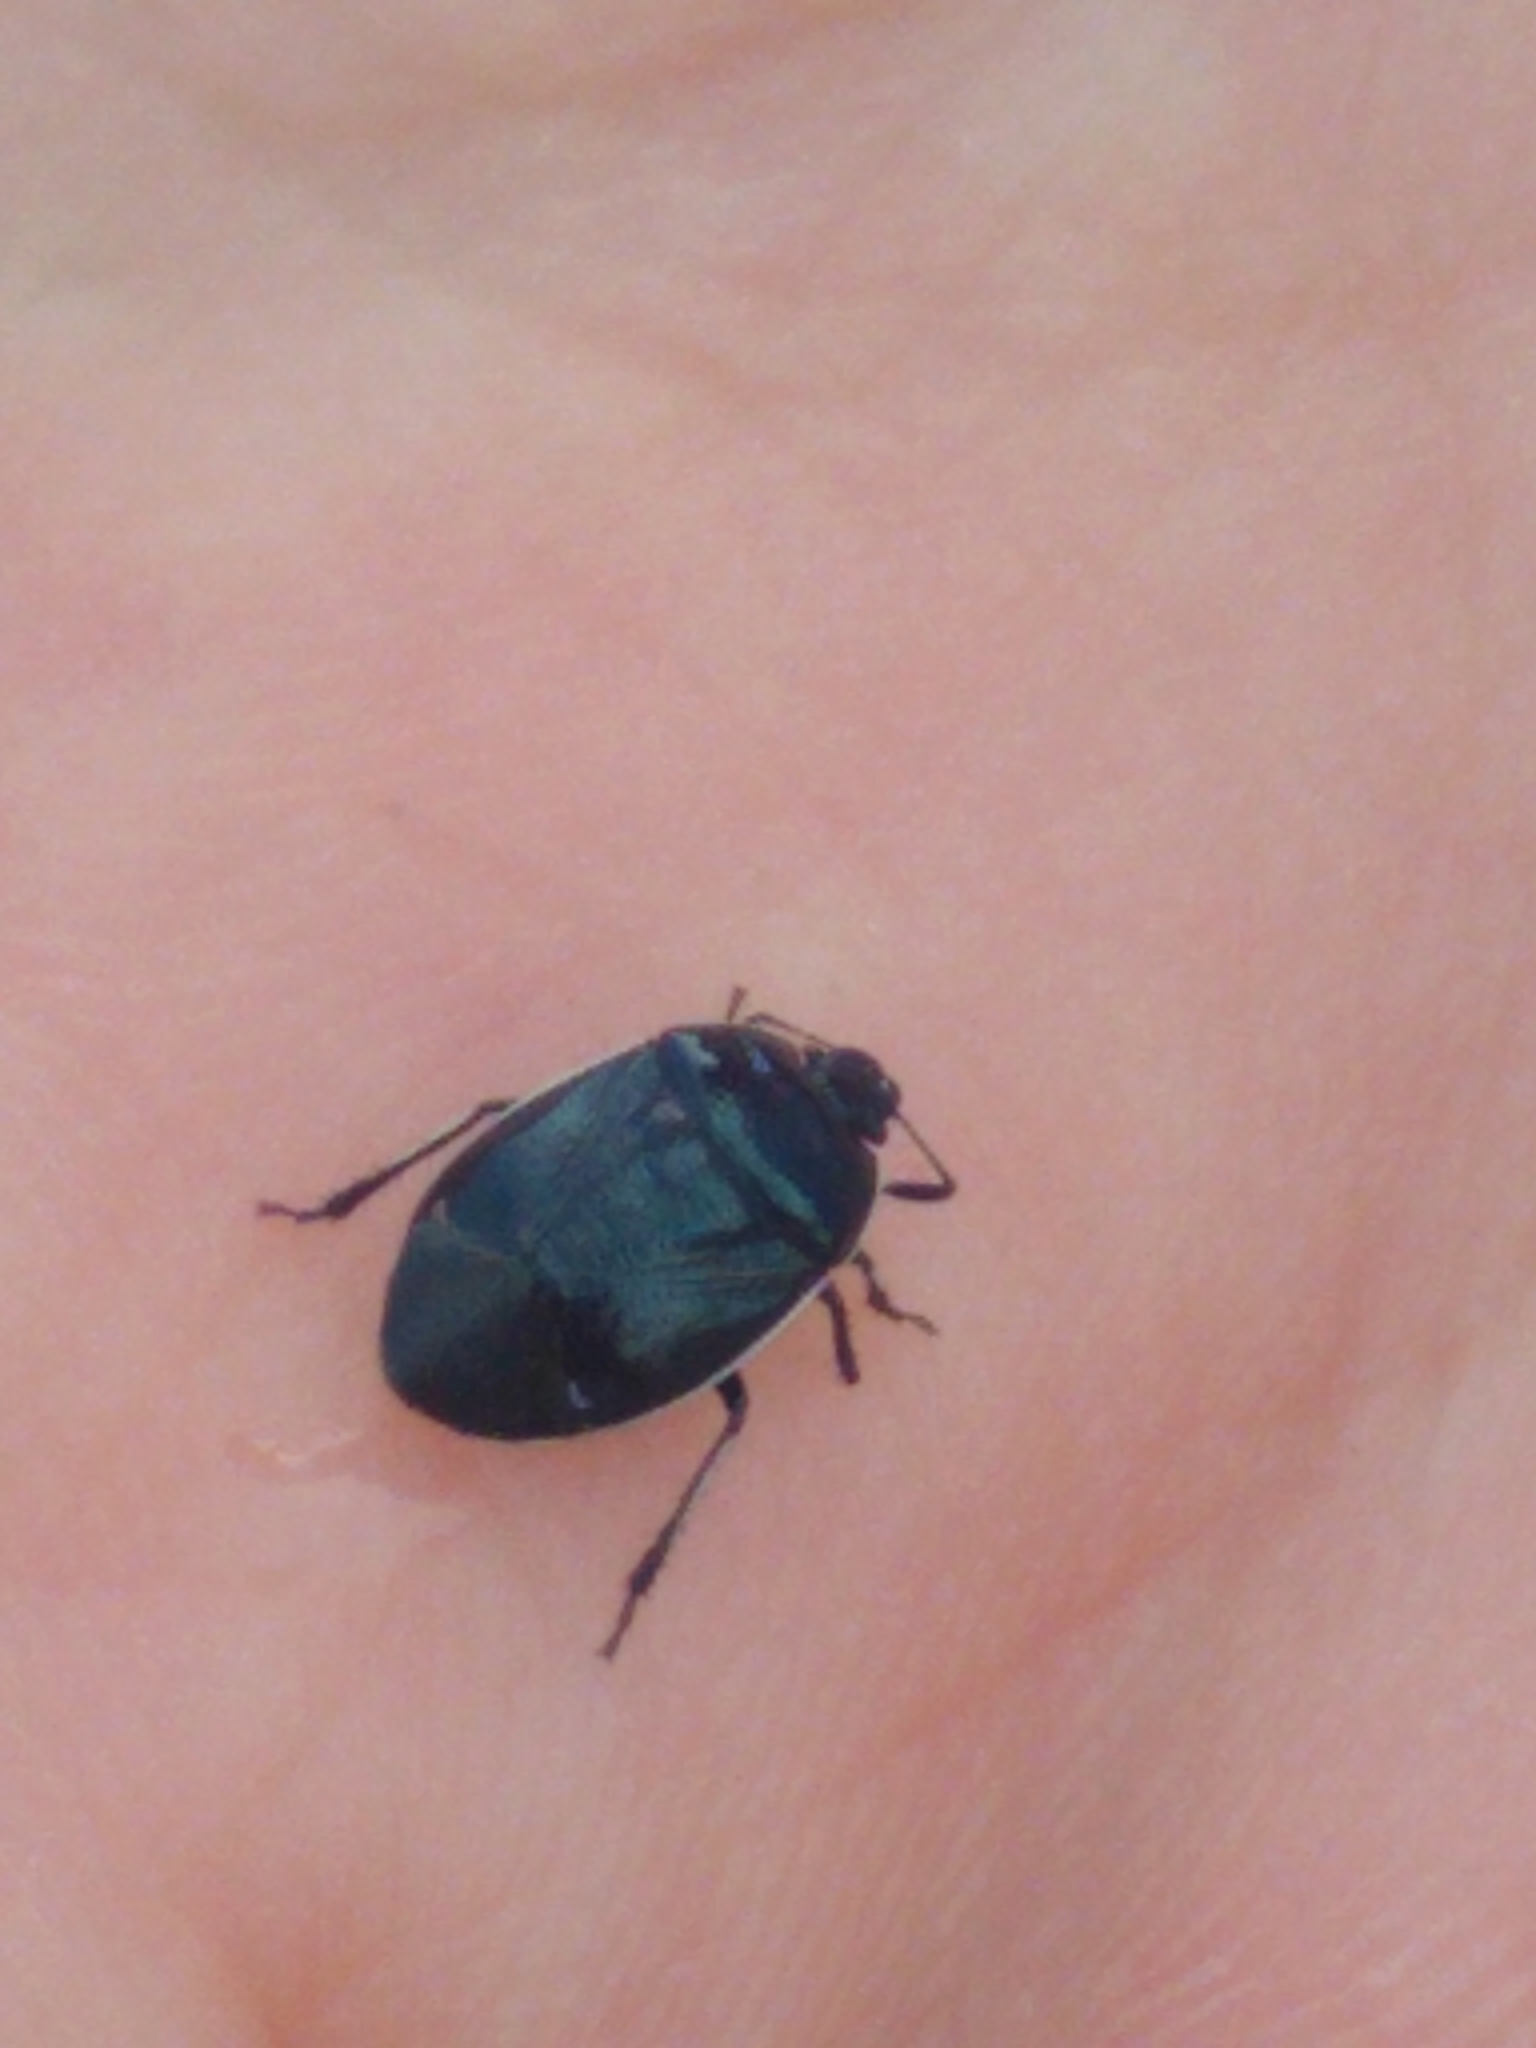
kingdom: Animalia
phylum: Arthropoda
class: Insecta
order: Hemiptera
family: Cydnidae
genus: Sehirus
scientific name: Sehirus cinctus
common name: White-margined burrower bug
